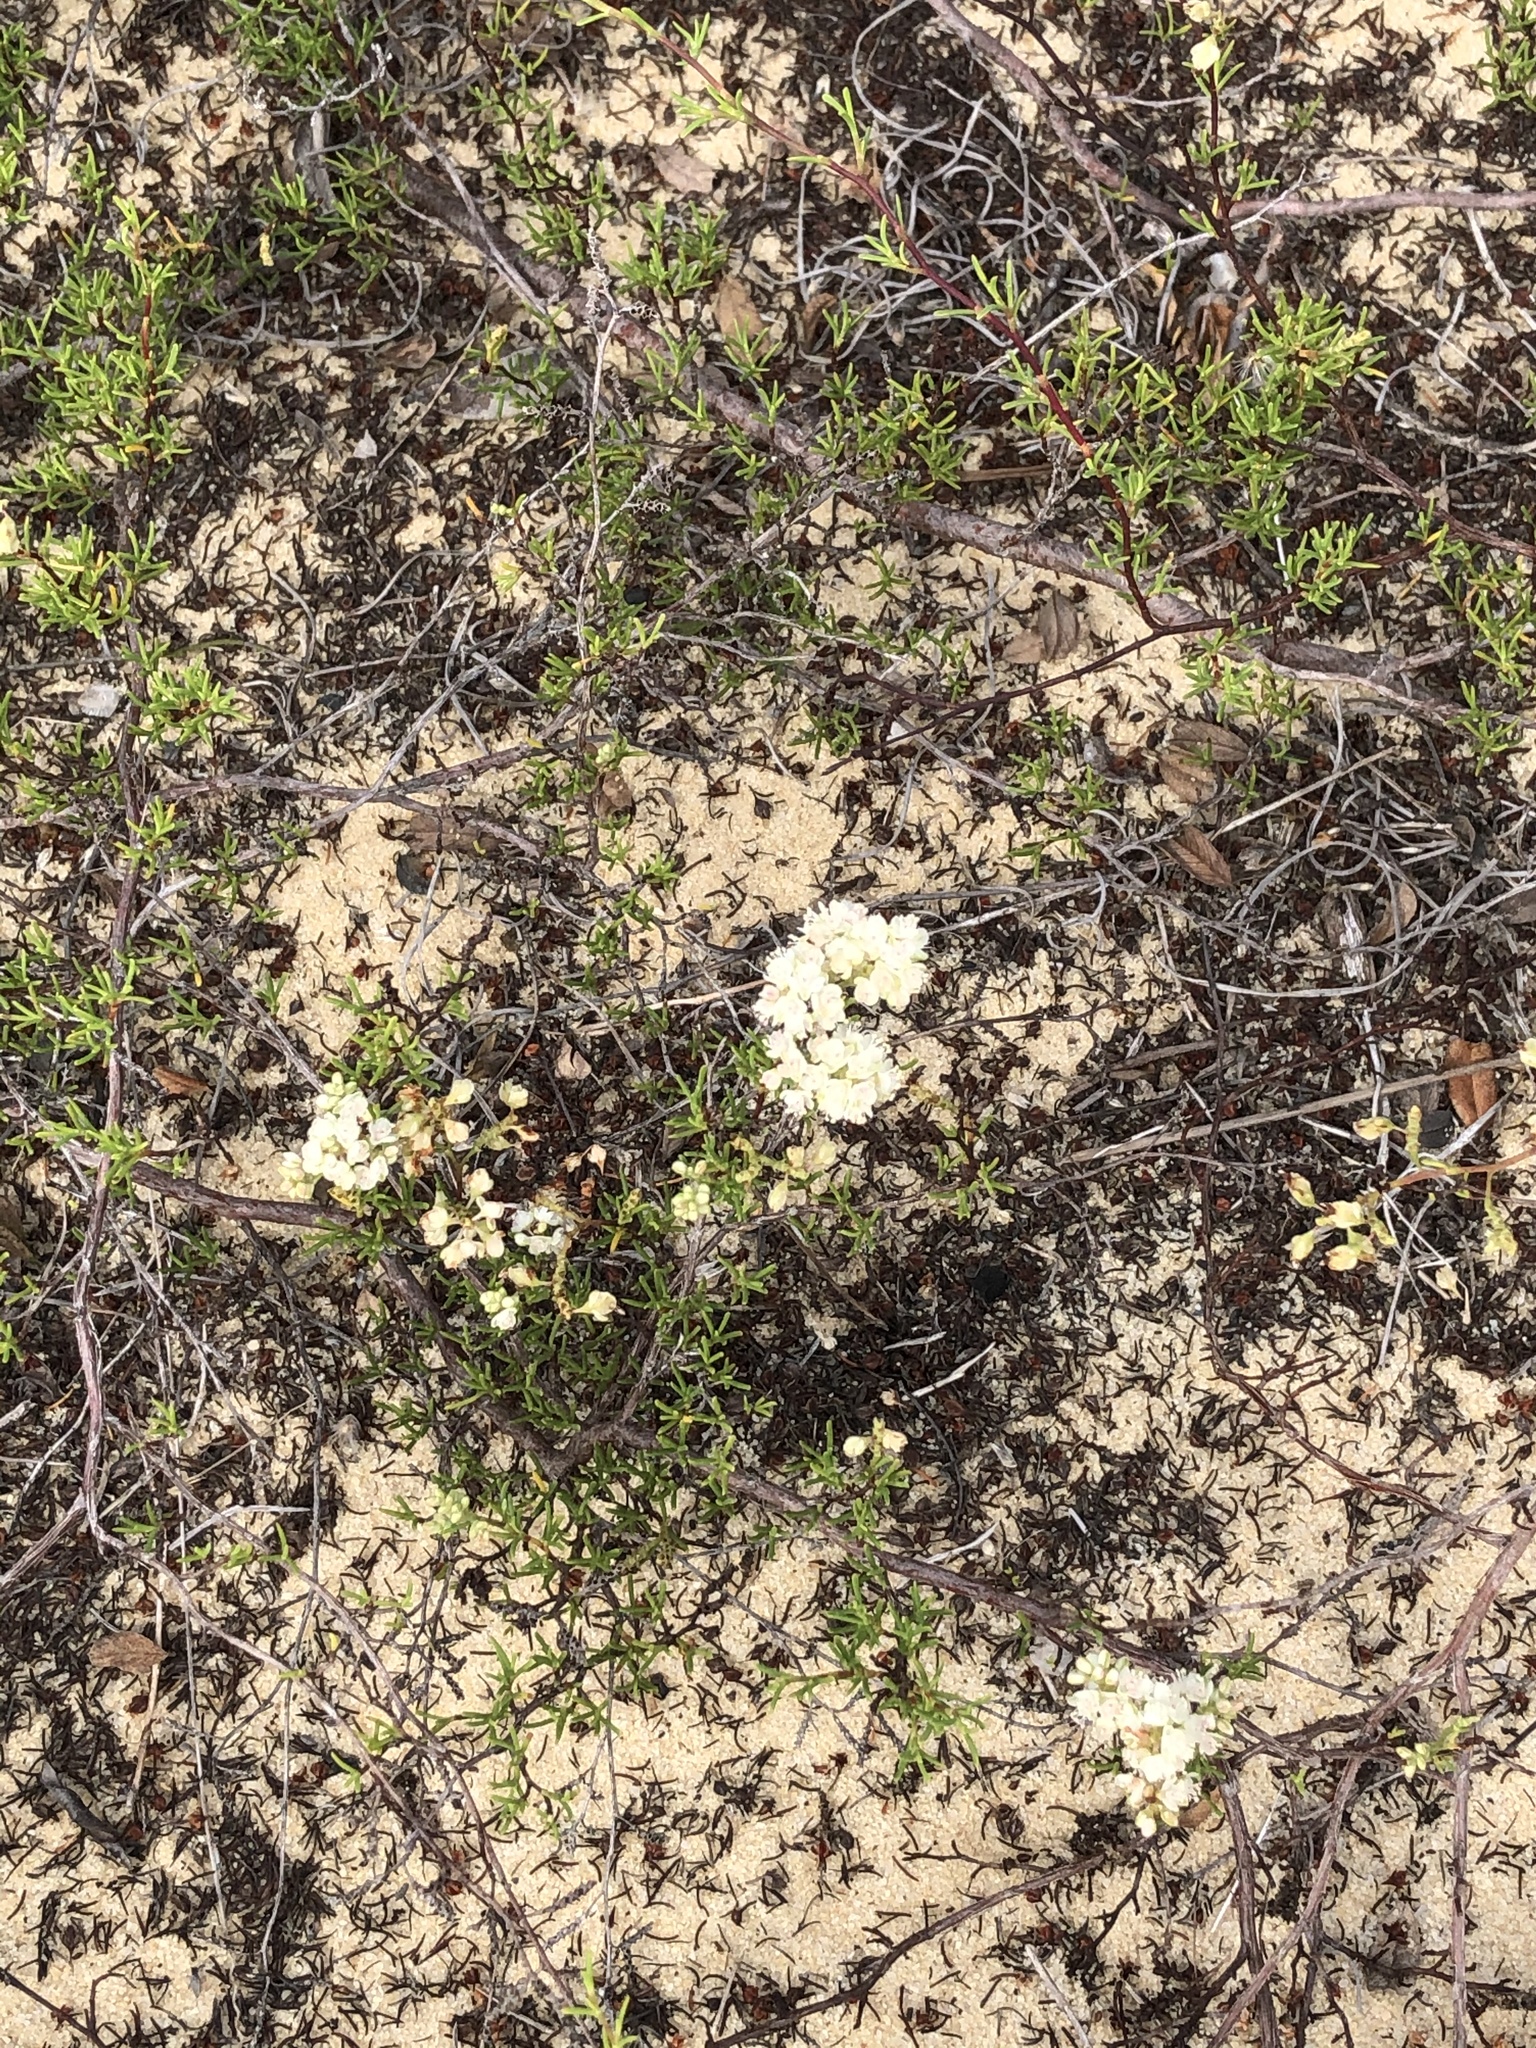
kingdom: Plantae
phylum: Tracheophyta
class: Magnoliopsida
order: Caryophyllales
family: Polygonaceae
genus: Polygonella
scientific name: Polygonella myriophylla
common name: Sandlace
